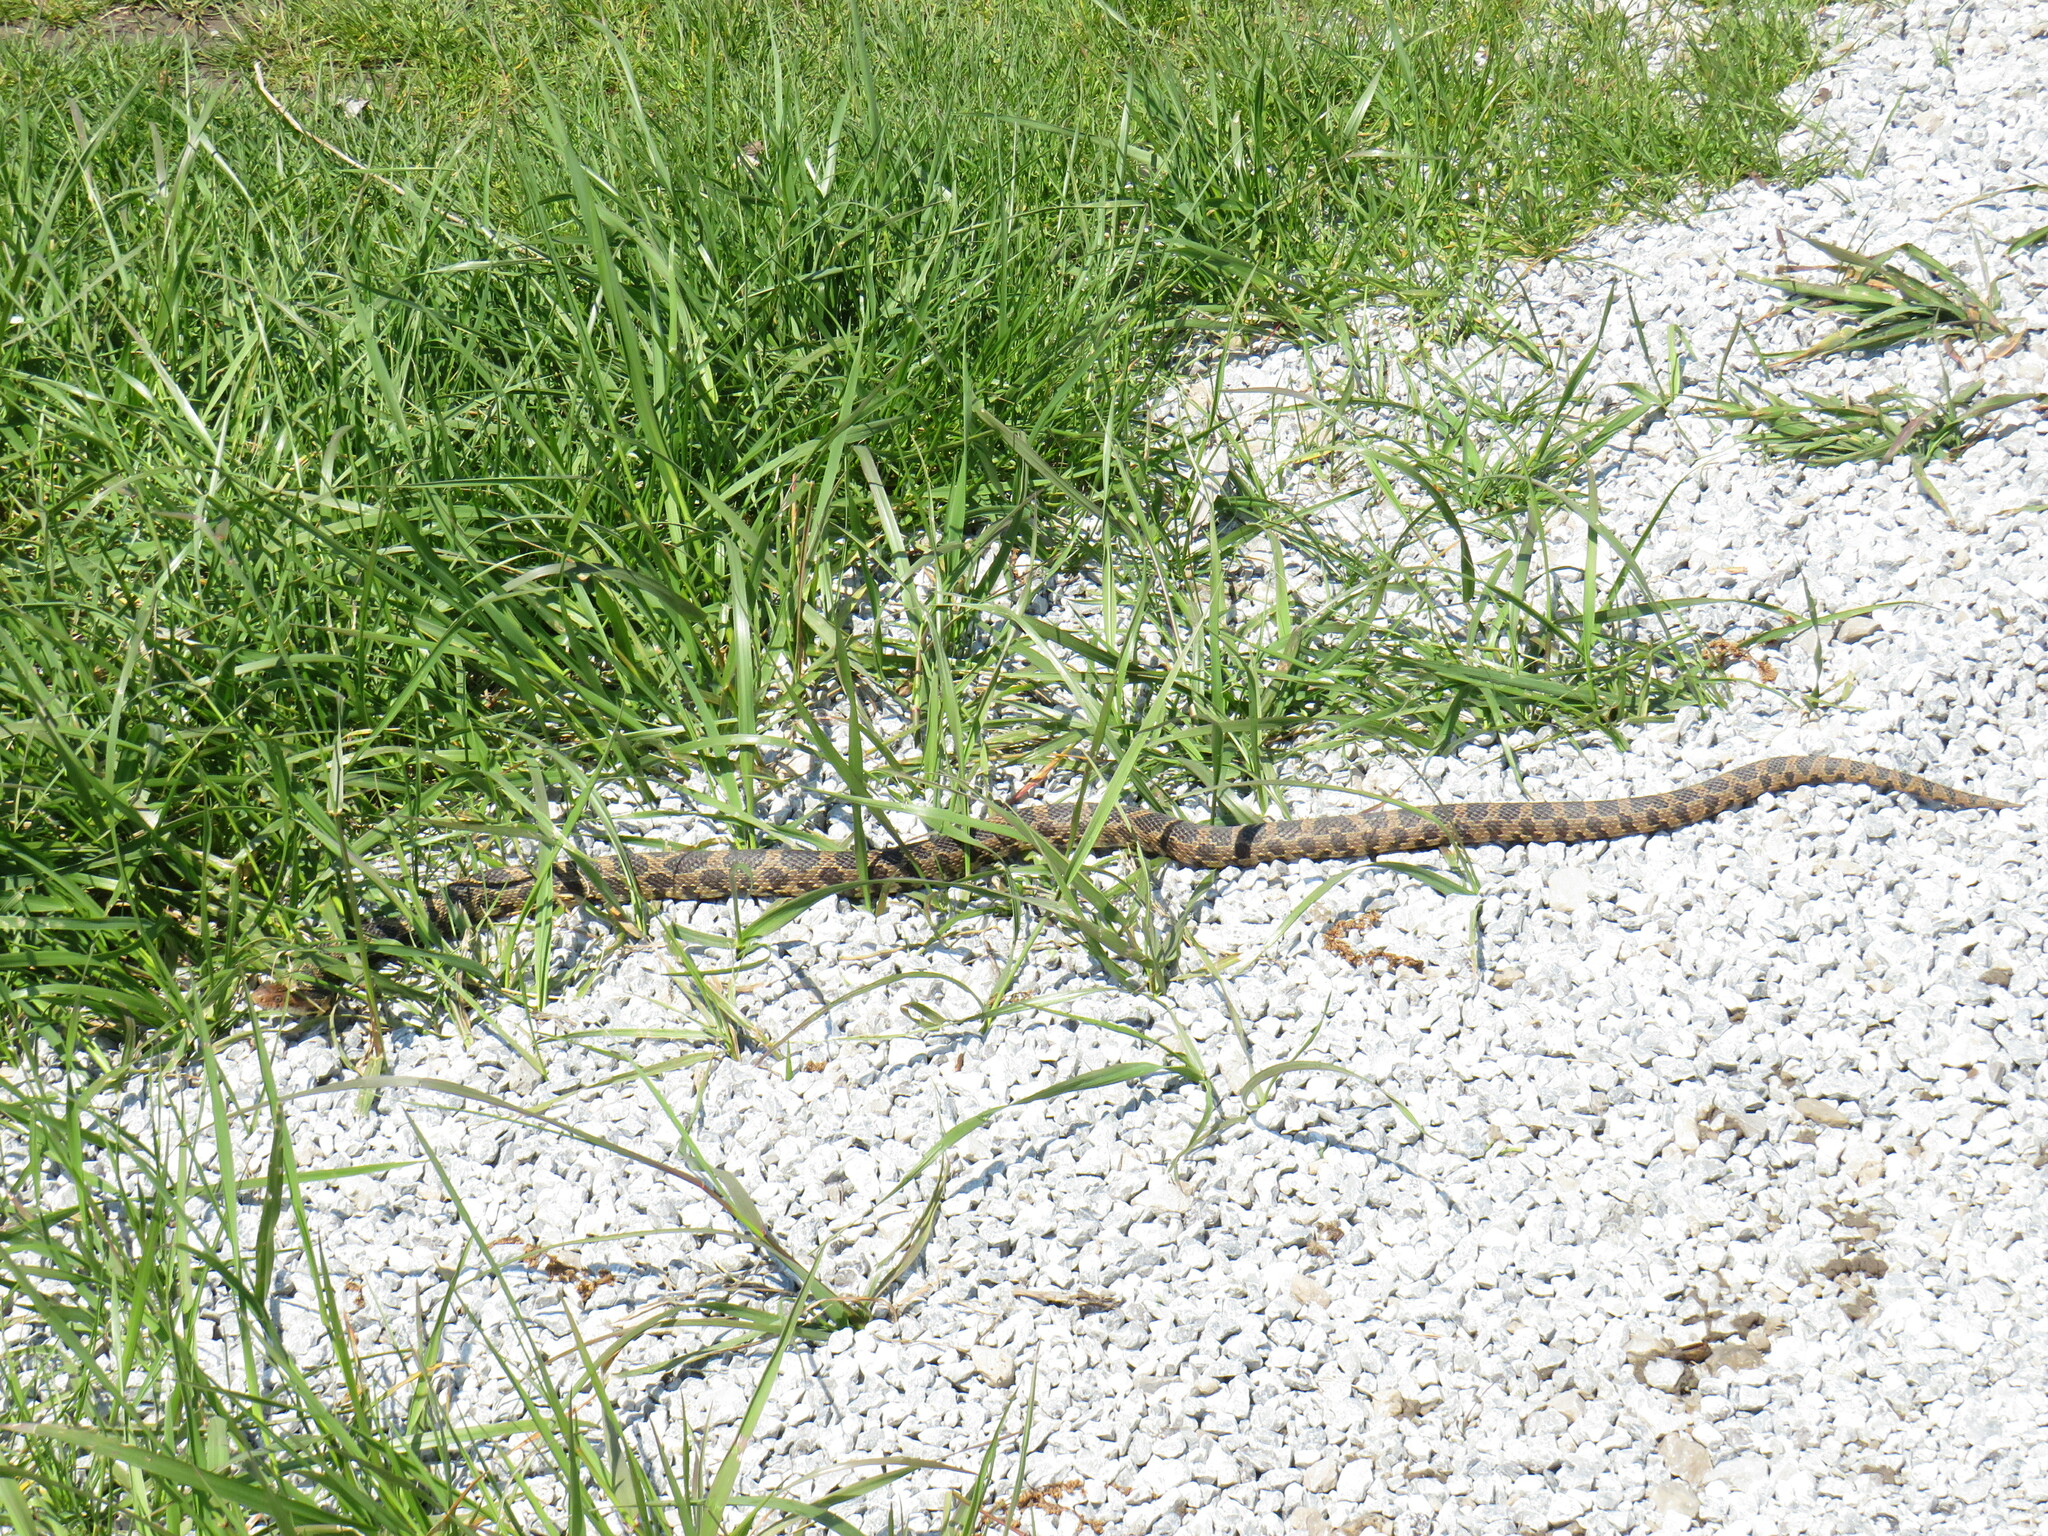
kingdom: Animalia
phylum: Chordata
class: Squamata
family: Colubridae
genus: Pantherophis
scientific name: Pantherophis vulpinus
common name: Eastern fox snake
